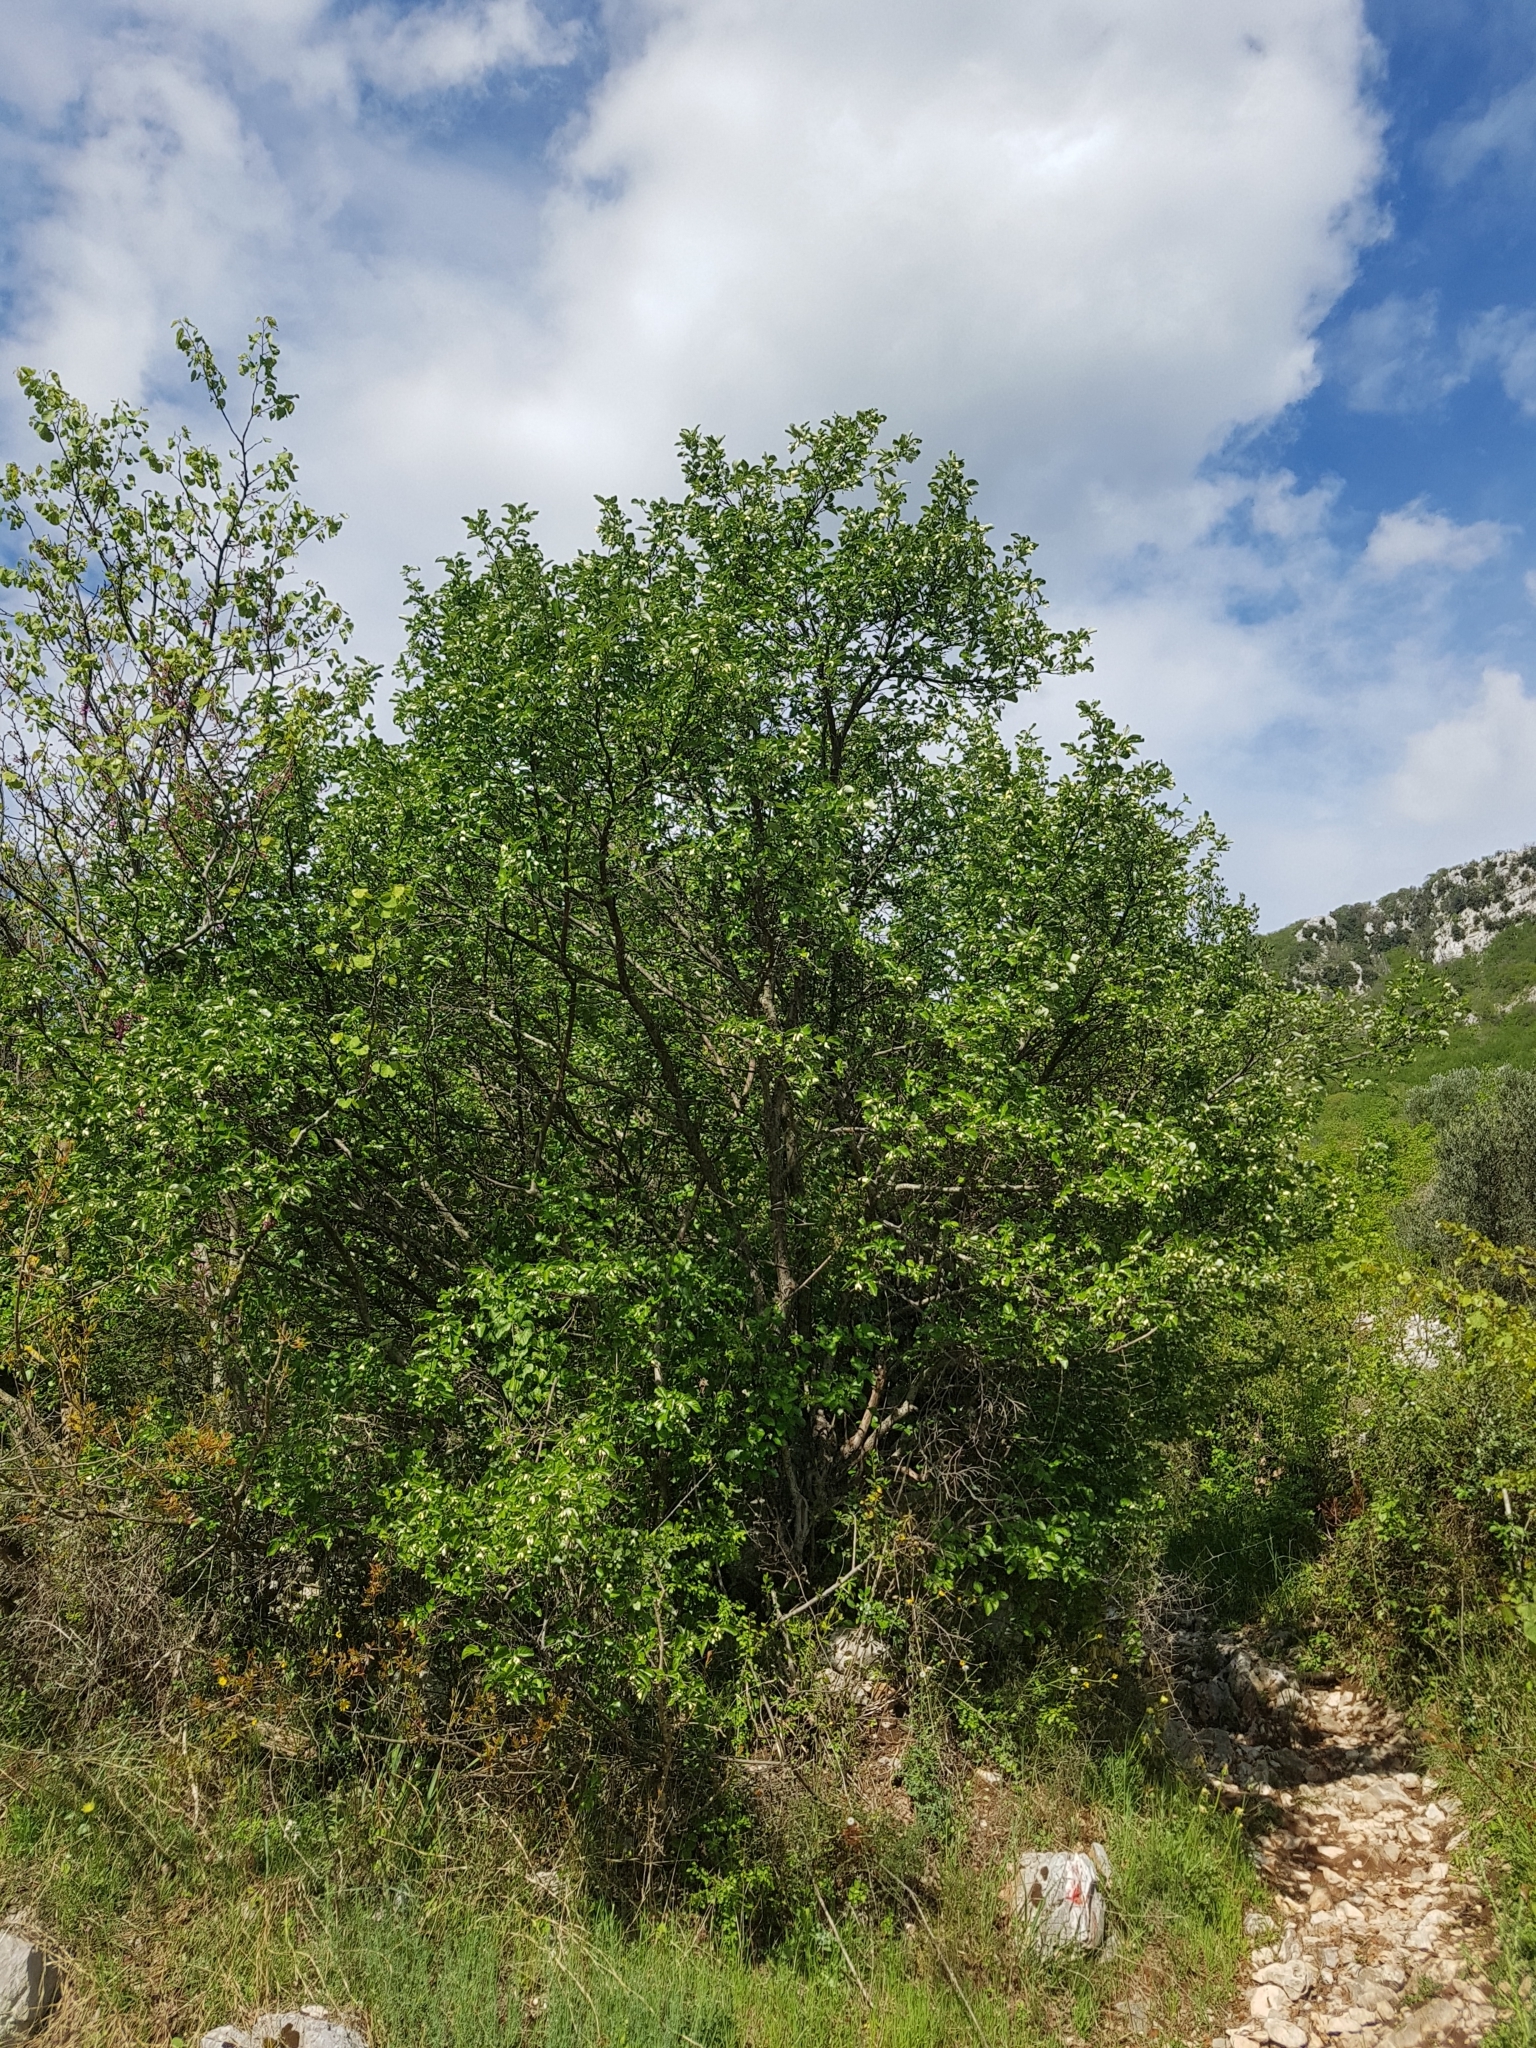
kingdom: Plantae
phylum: Tracheophyta
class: Magnoliopsida
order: Ericales
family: Styracaceae
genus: Styrax
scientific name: Styrax officinalis
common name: Storax
